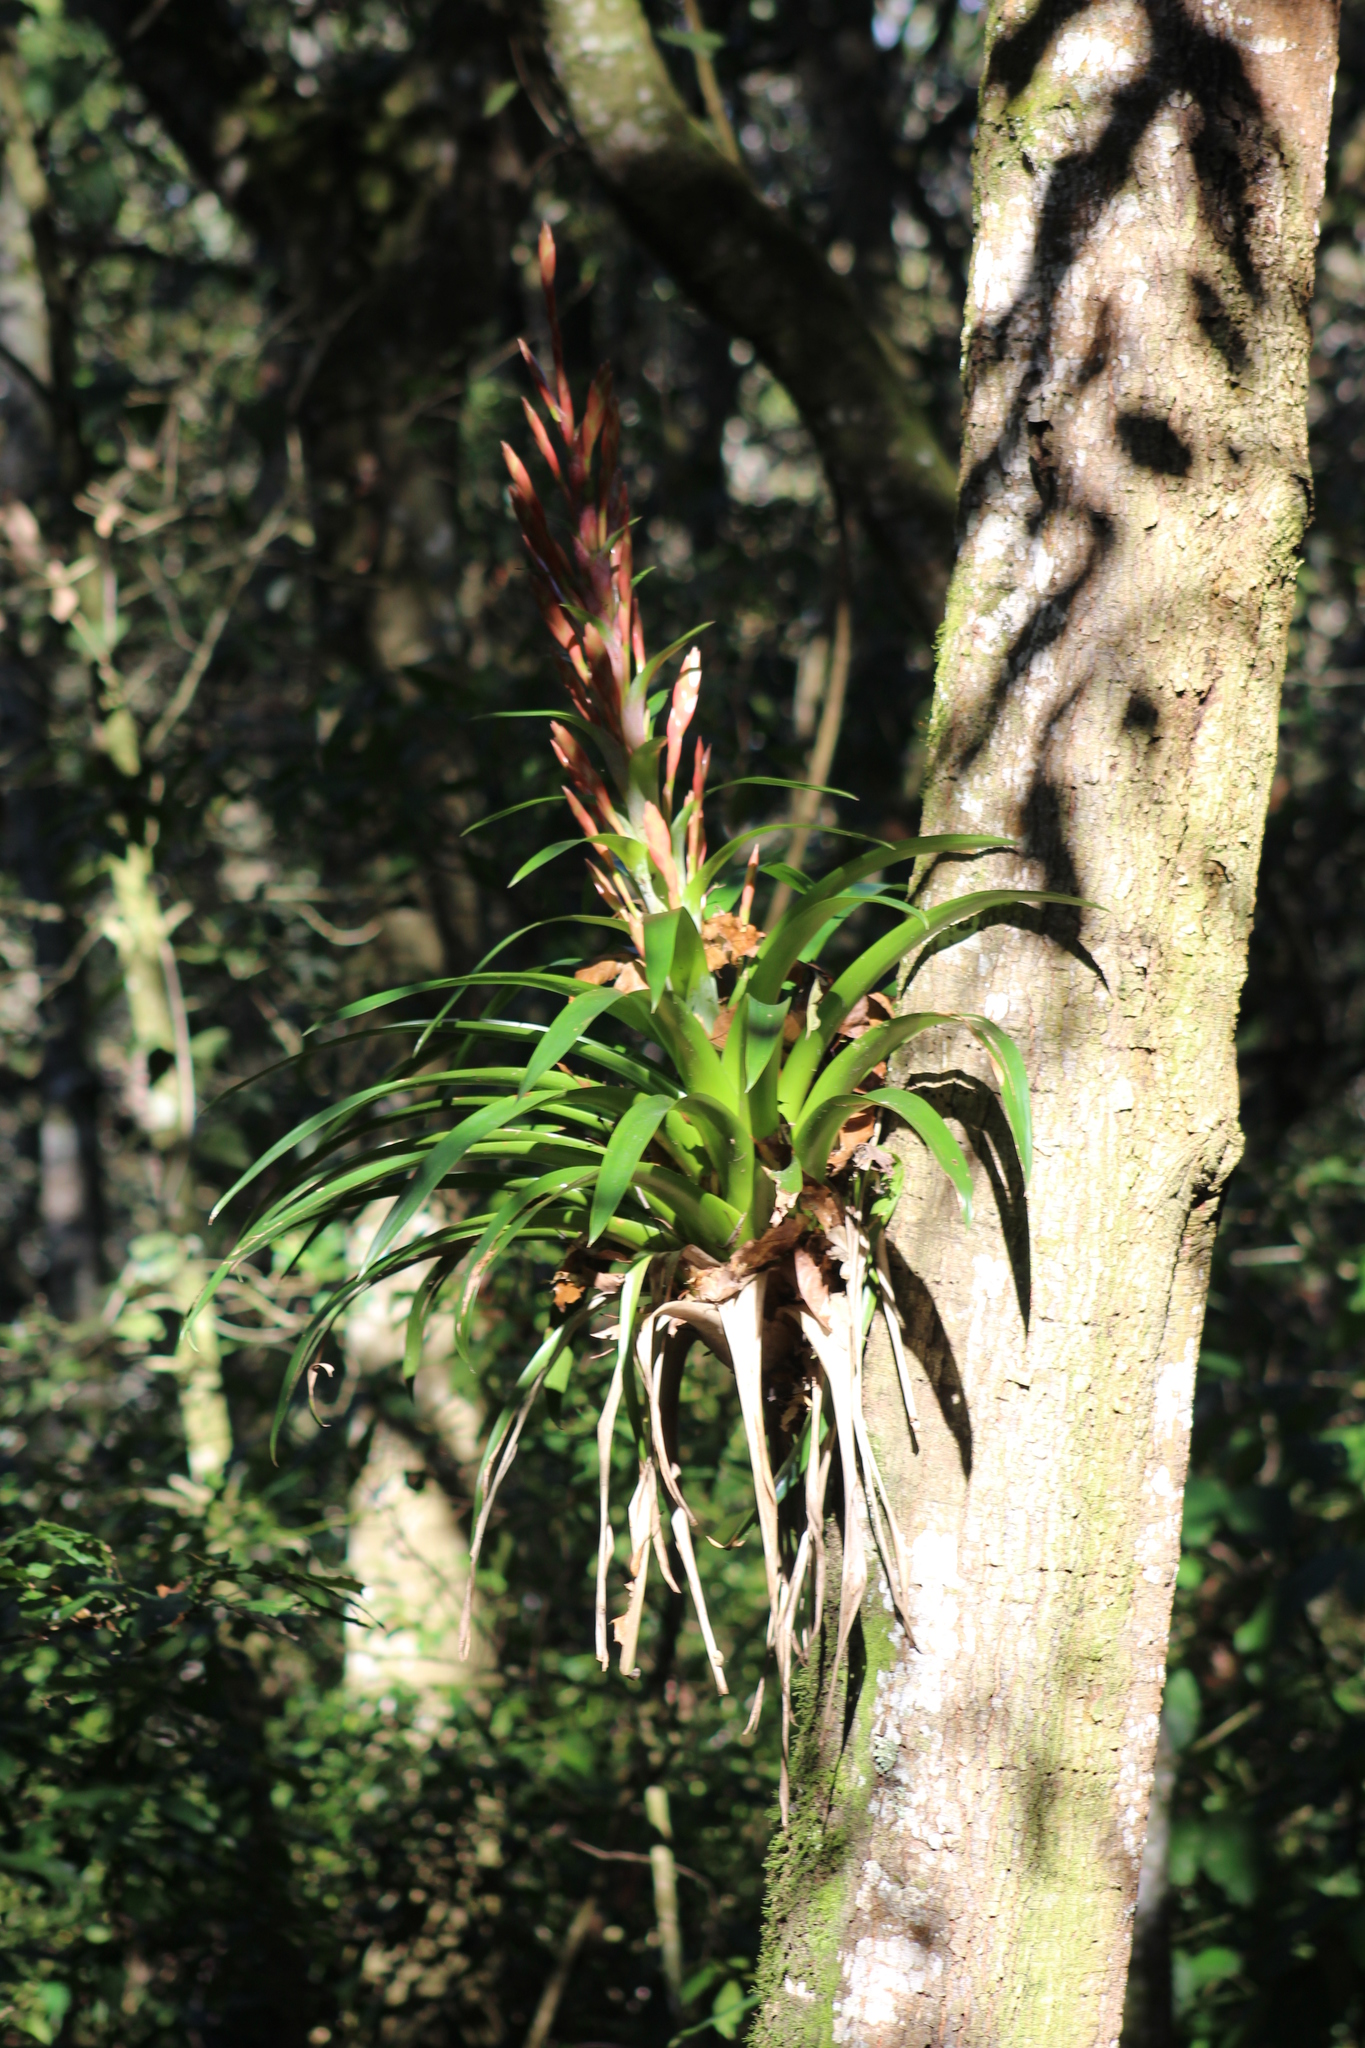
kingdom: Plantae
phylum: Tracheophyta
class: Liliopsida
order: Poales
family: Bromeliaceae
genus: Tillandsia
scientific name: Tillandsia deppeana
